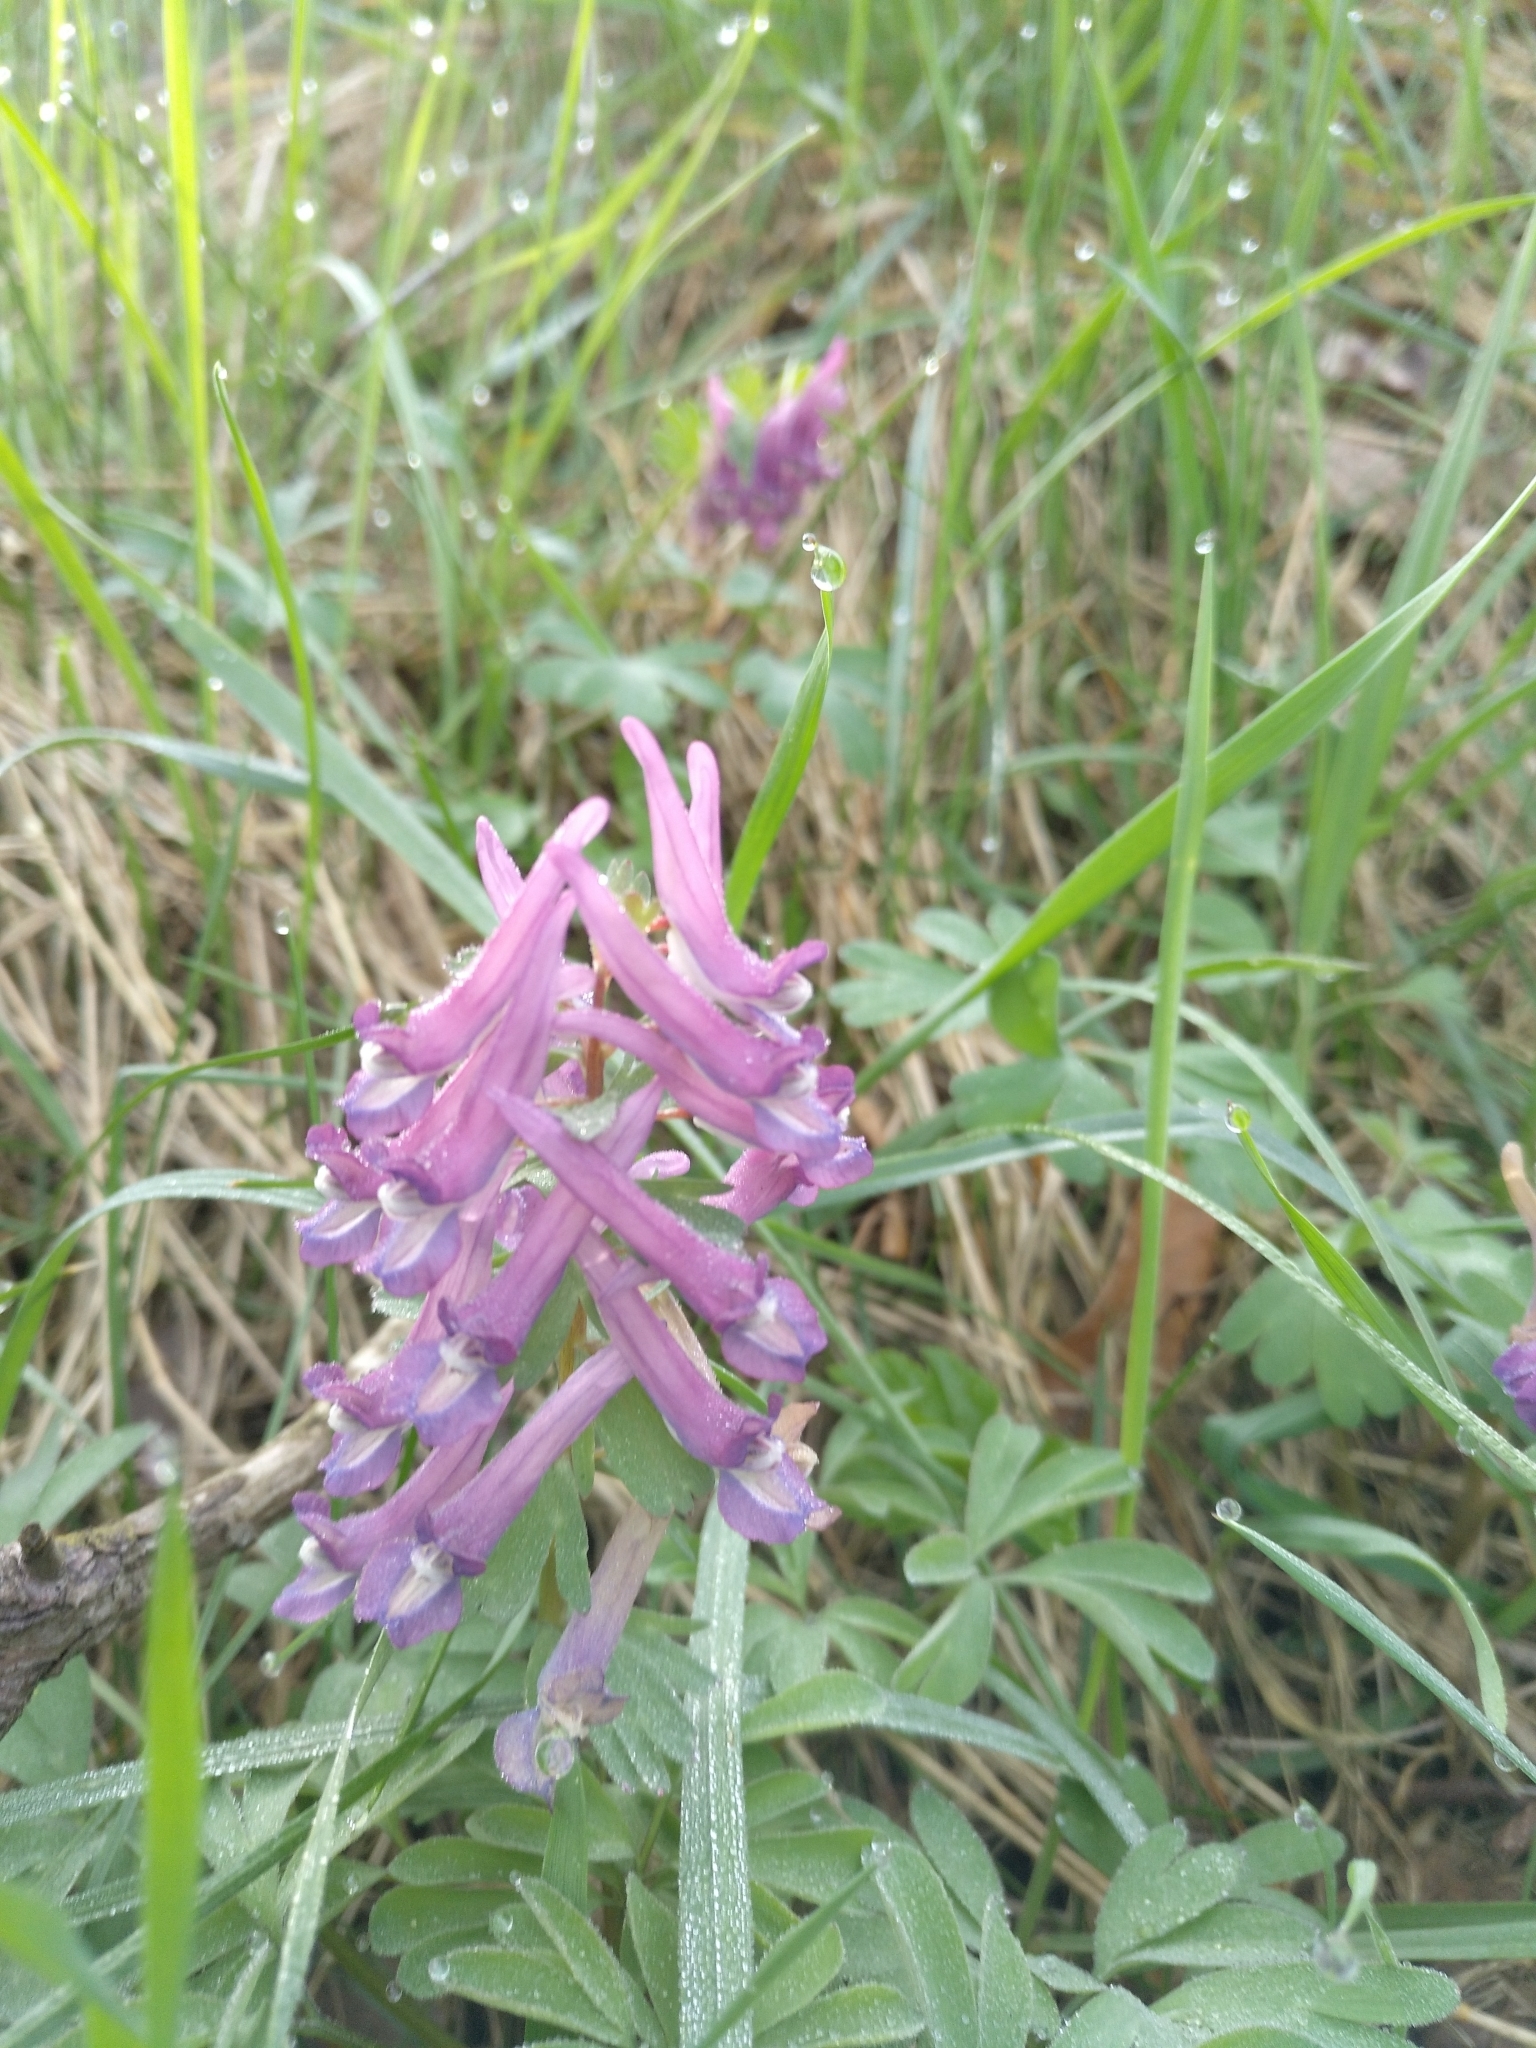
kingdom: Plantae
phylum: Tracheophyta
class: Magnoliopsida
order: Ranunculales
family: Papaveraceae
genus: Corydalis
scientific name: Corydalis solida
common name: Bird-in-a-bush
